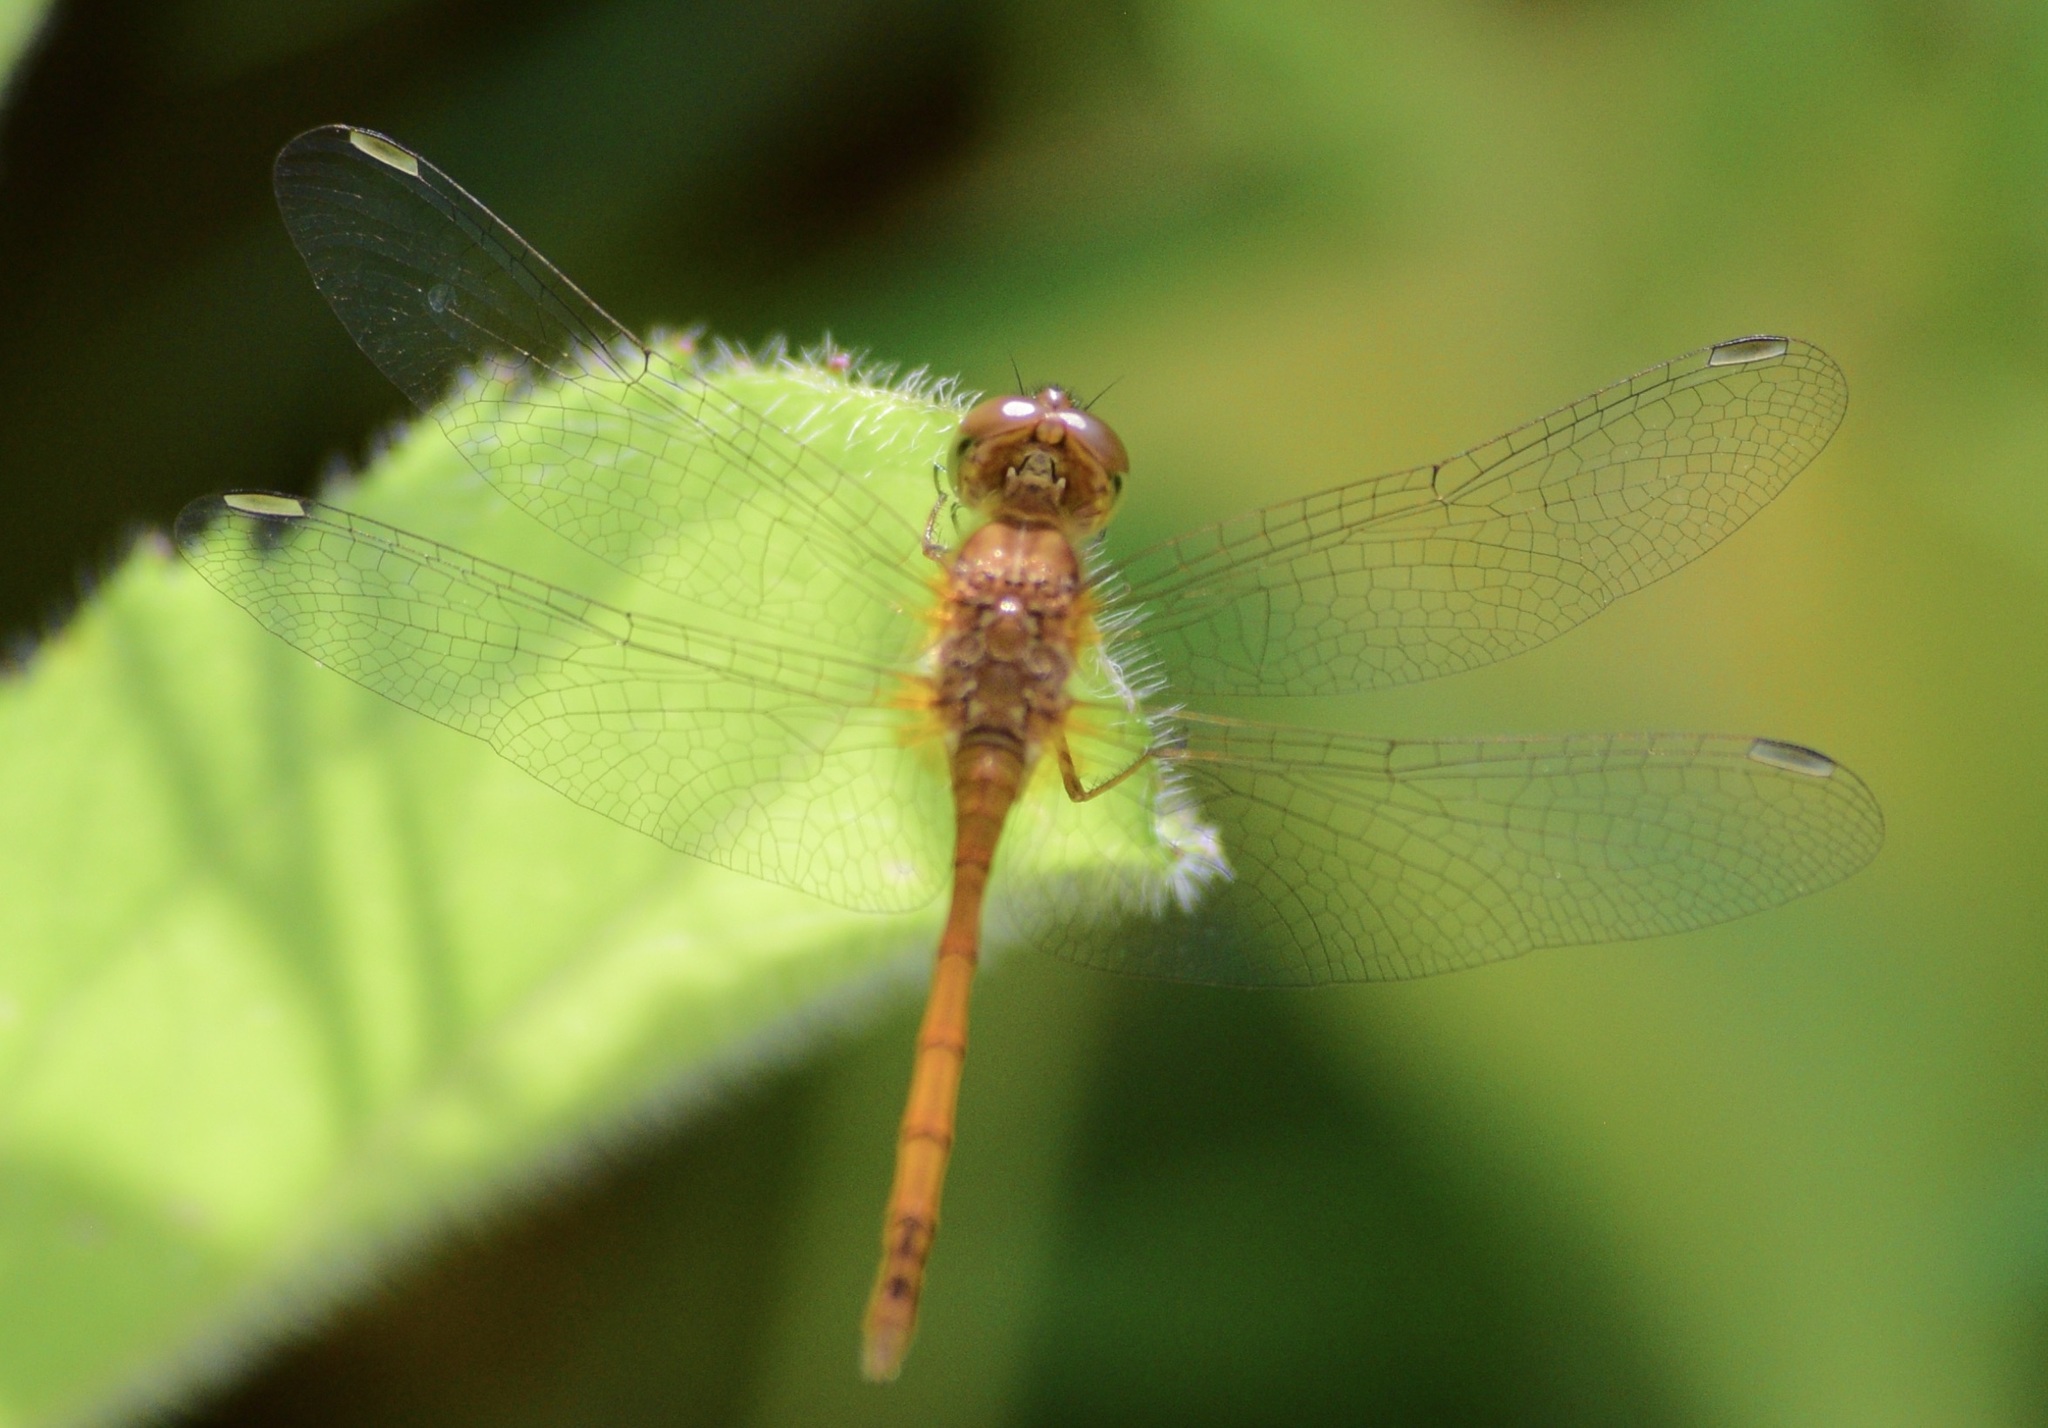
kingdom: Animalia
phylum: Arthropoda
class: Insecta
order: Odonata
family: Libellulidae
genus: Sympetrum
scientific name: Sympetrum vicinum
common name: Autumn meadowhawk
